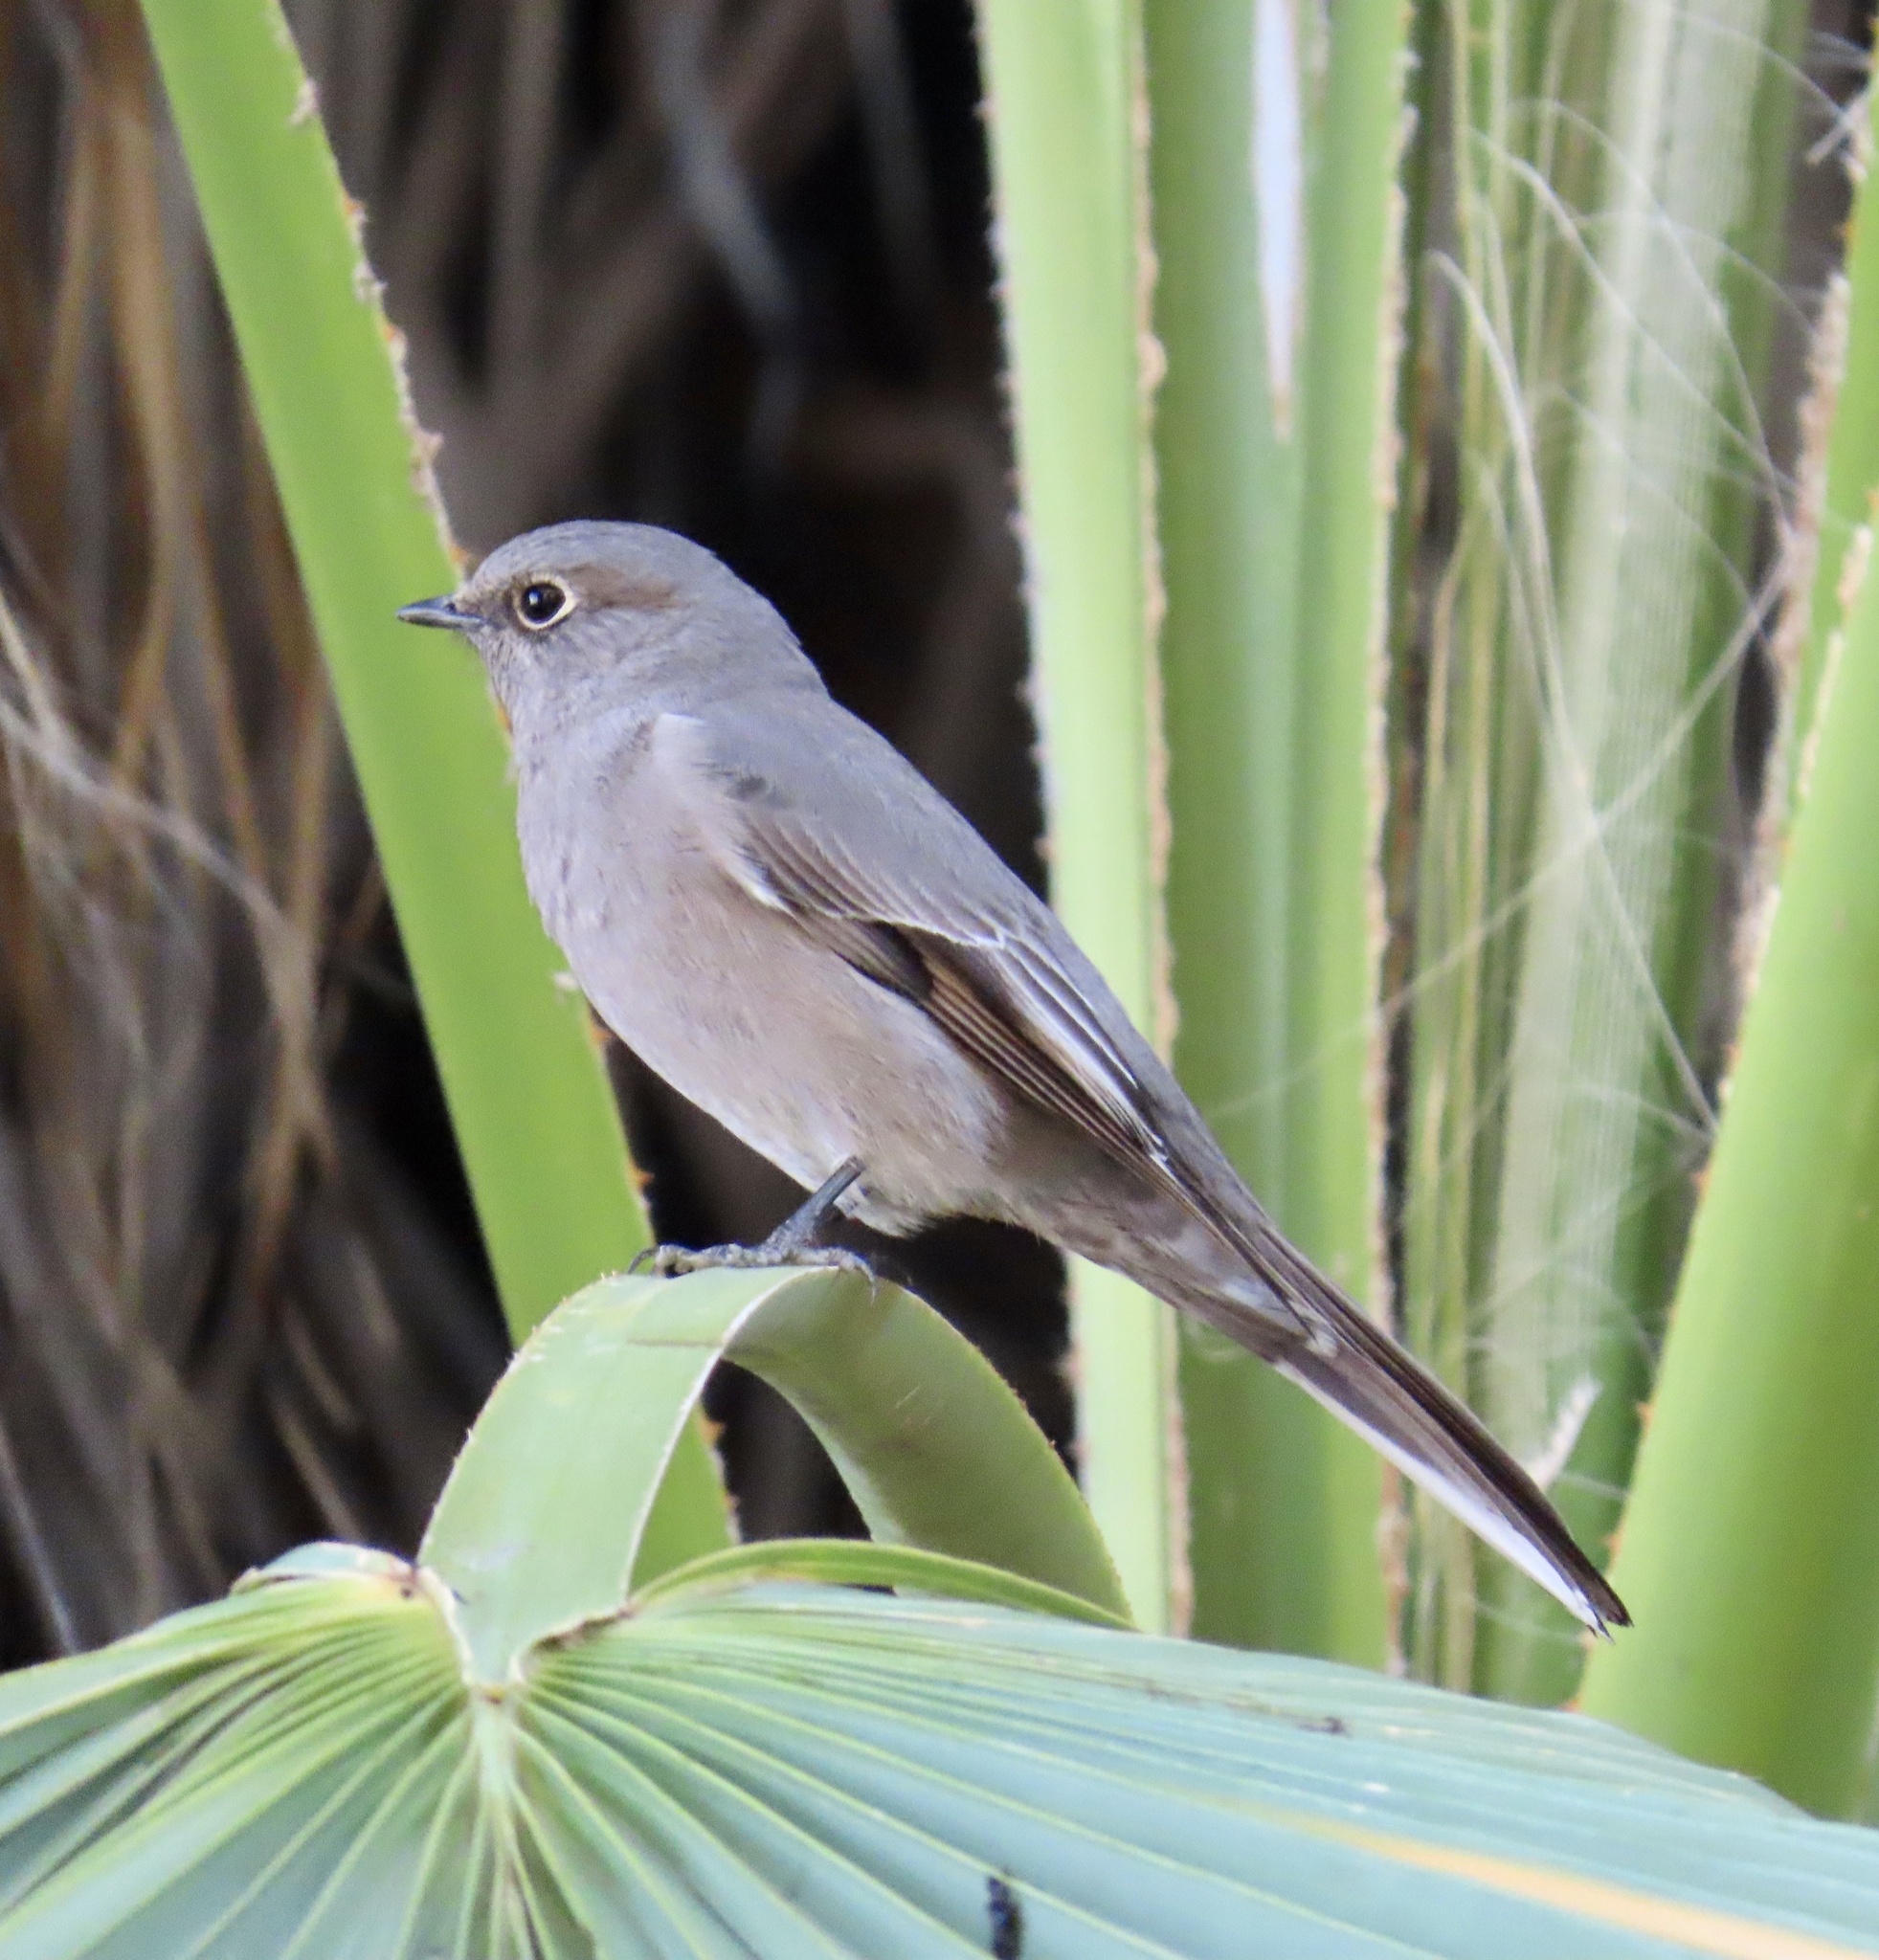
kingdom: Animalia
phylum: Chordata
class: Aves
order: Passeriformes
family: Turdidae
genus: Myadestes
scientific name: Myadestes townsendi
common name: Townsend's solitaire
